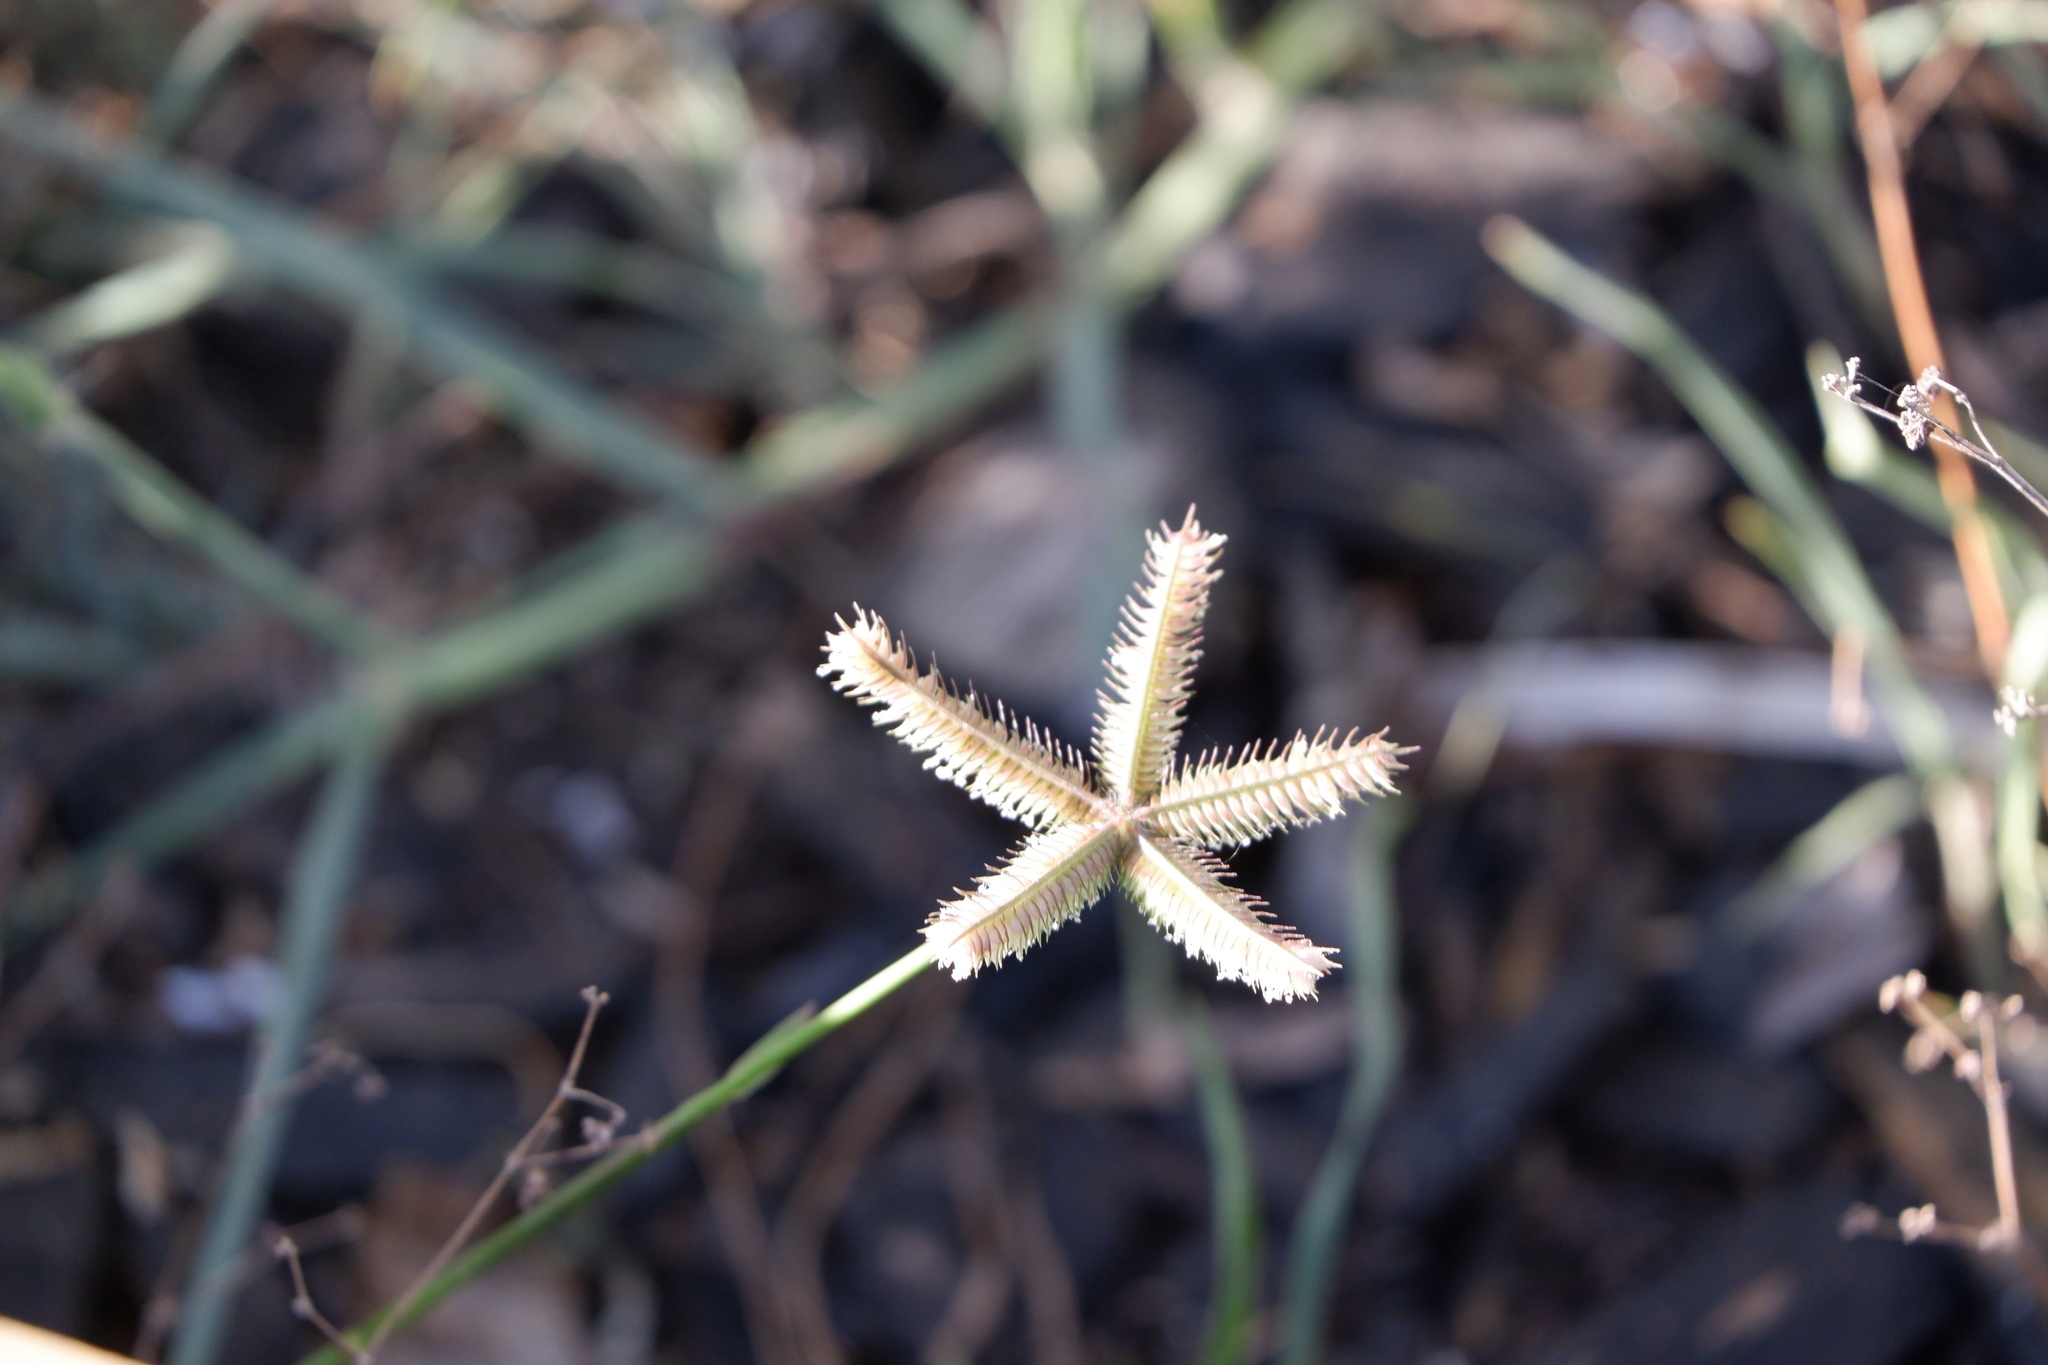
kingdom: Plantae
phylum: Tracheophyta
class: Liliopsida
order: Poales
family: Poaceae
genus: Dactyloctenium
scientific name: Dactyloctenium aegyptium
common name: Egyptian grass
